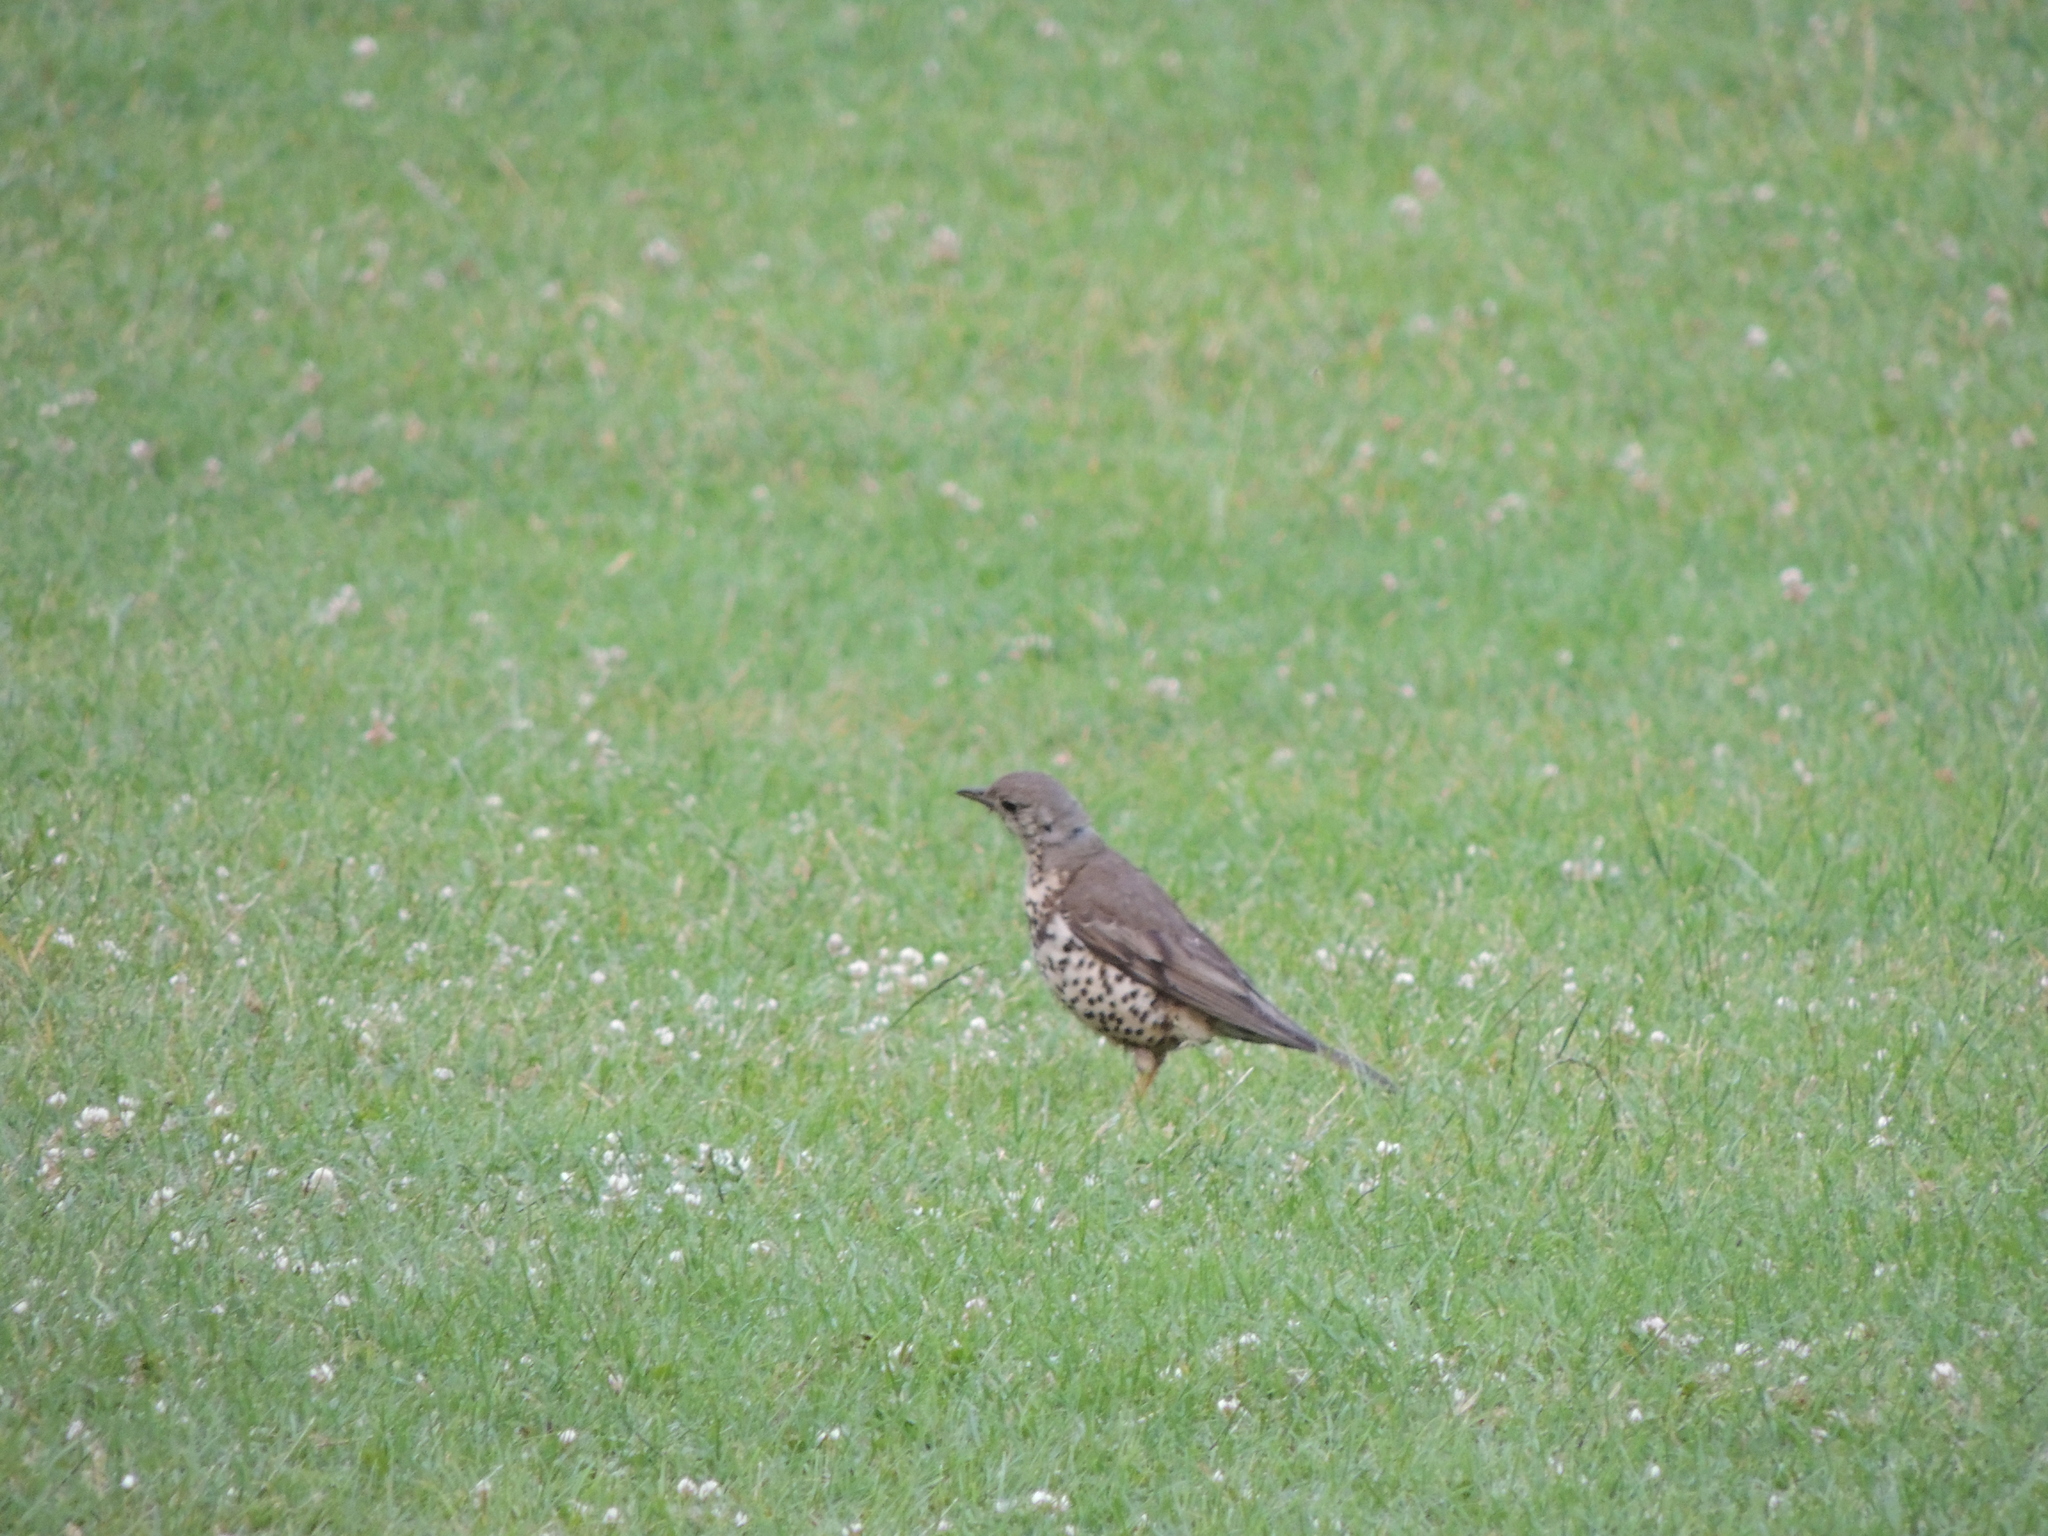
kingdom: Animalia
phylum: Chordata
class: Aves
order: Passeriformes
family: Turdidae
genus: Turdus
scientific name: Turdus viscivorus
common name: Mistle thrush
